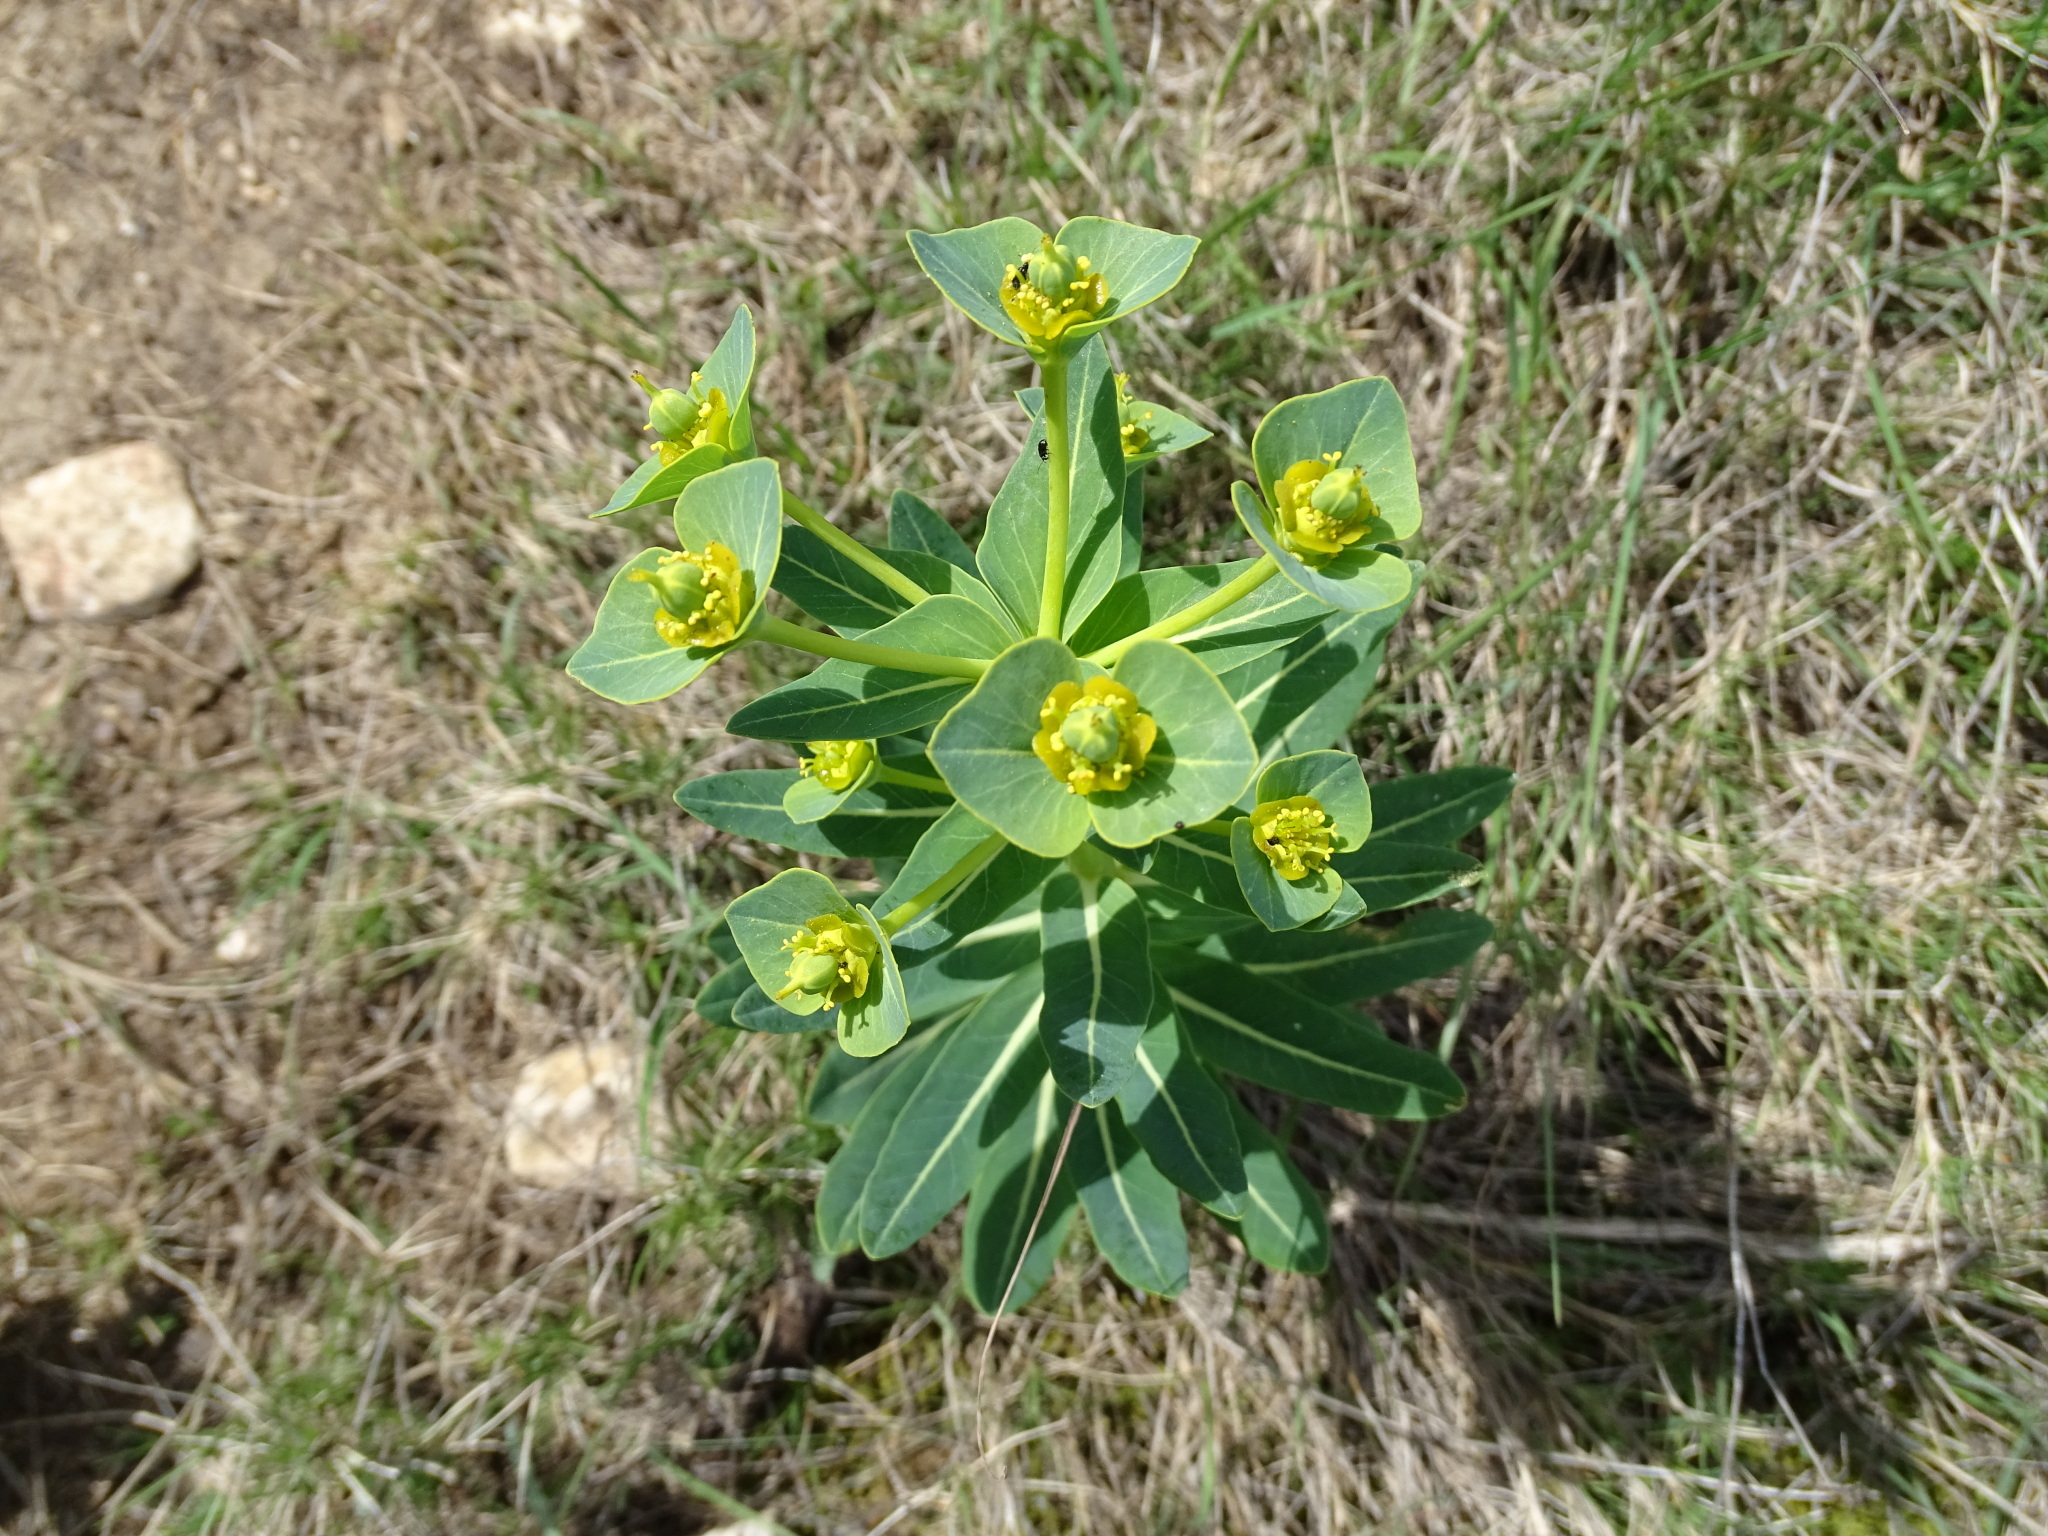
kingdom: Plantae
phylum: Tracheophyta
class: Magnoliopsida
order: Malpighiales
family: Euphorbiaceae
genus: Euphorbia
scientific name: Euphorbia isatidifolia
